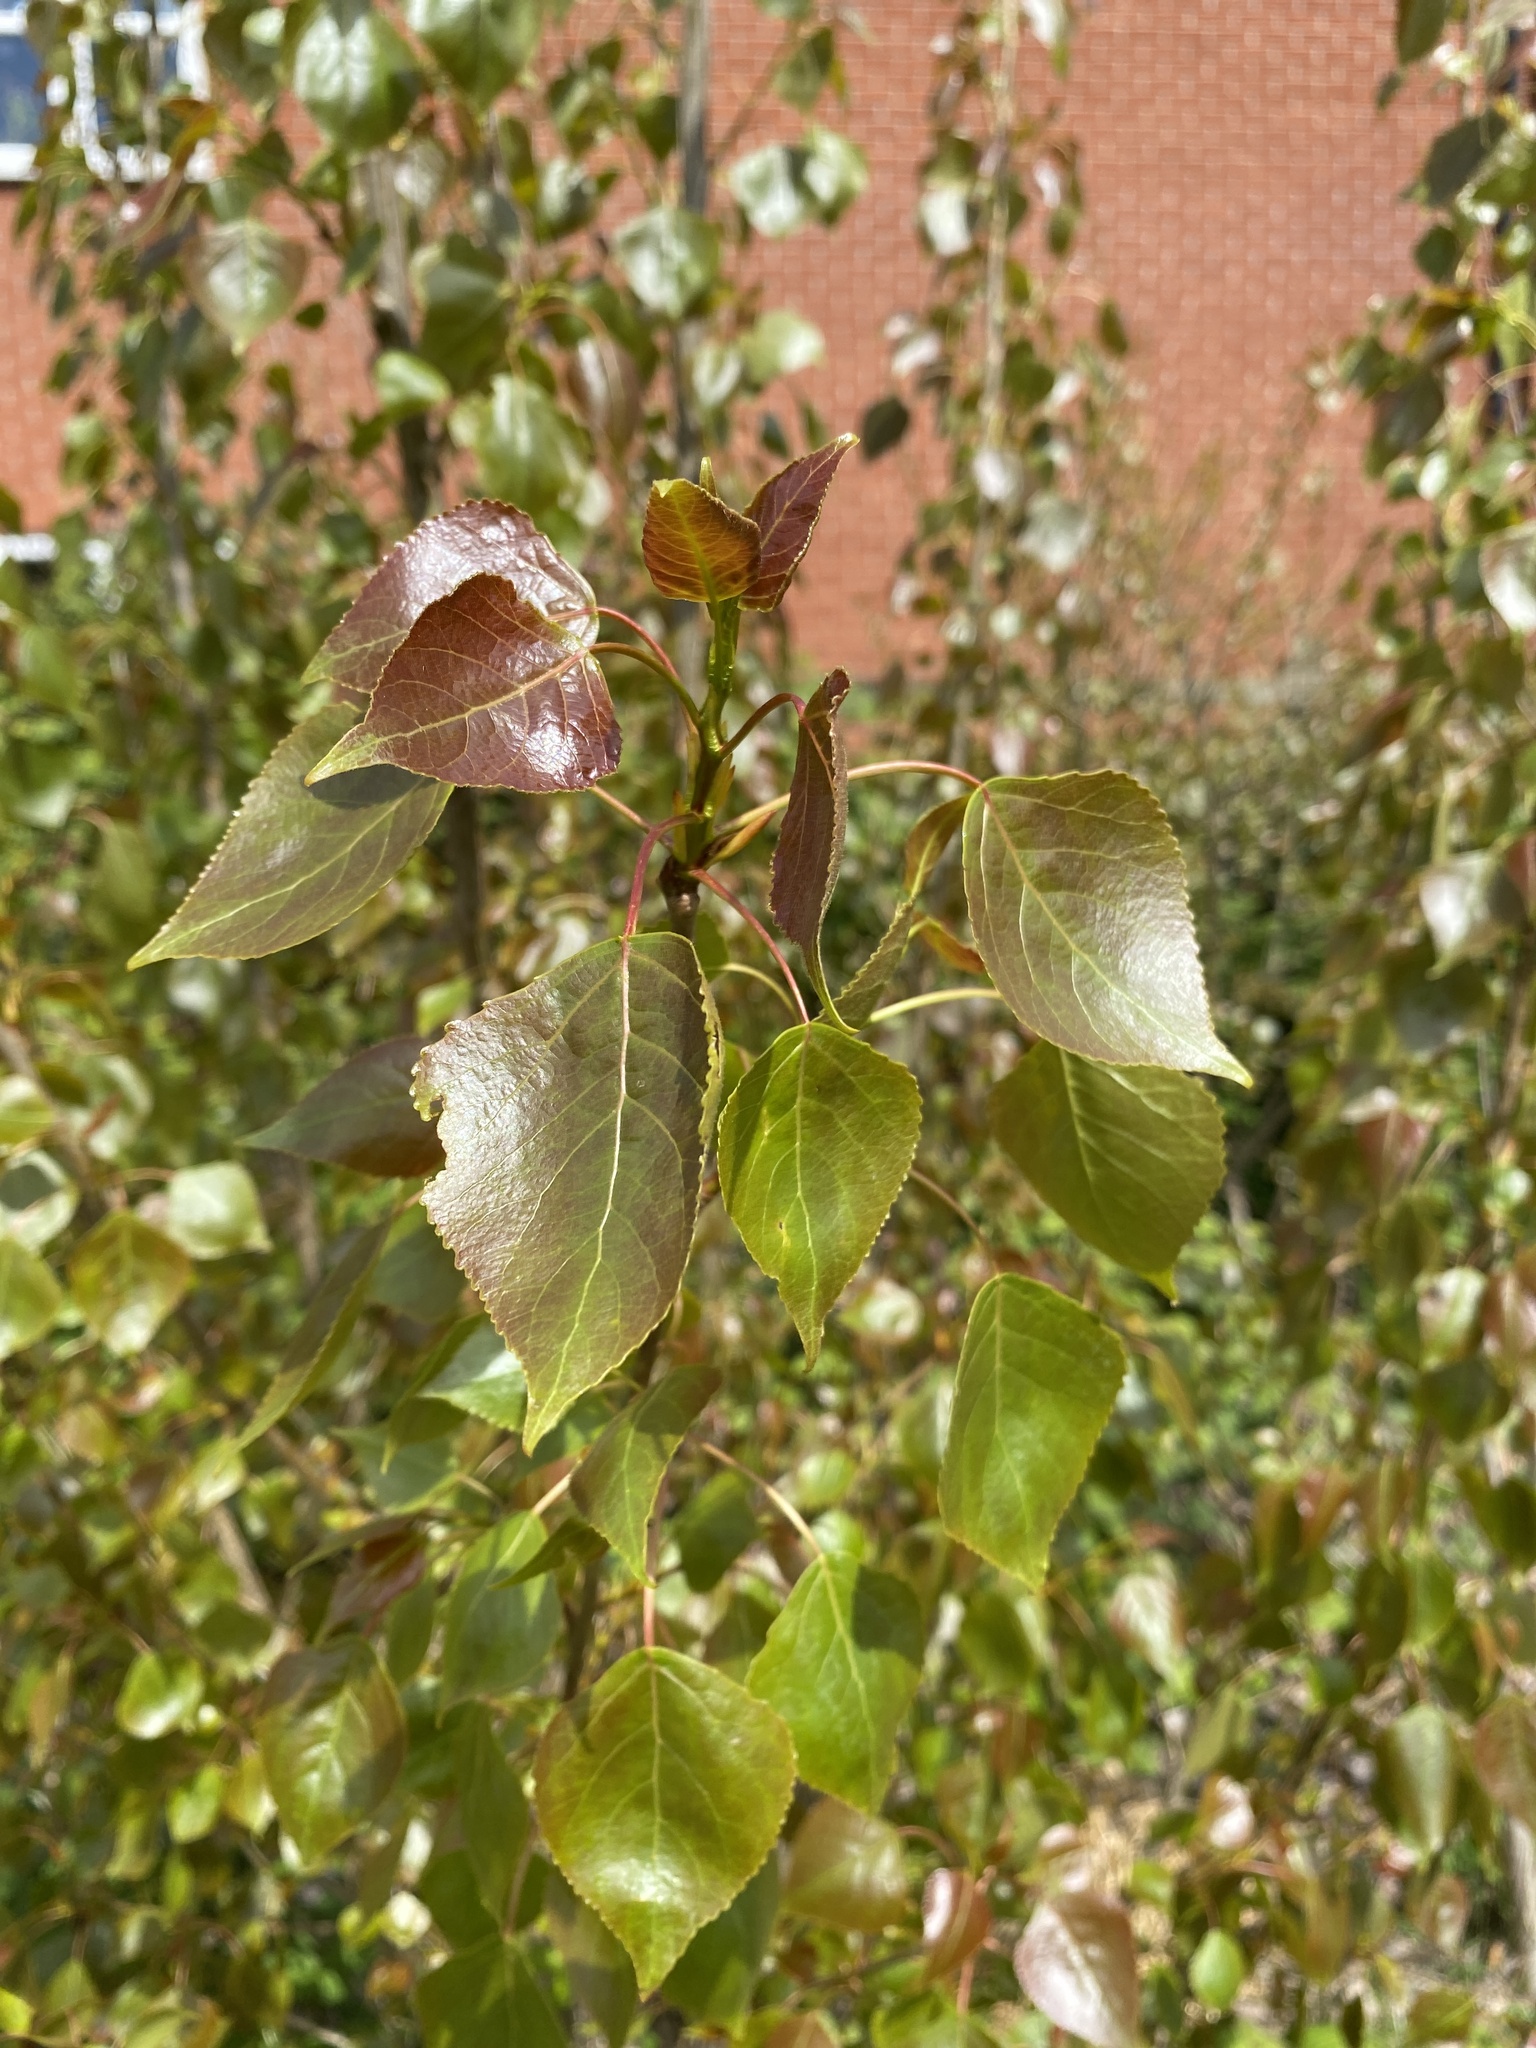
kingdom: Plantae
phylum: Tracheophyta
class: Magnoliopsida
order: Malpighiales
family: Salicaceae
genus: Populus
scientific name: Populus nigra
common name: Black poplar
